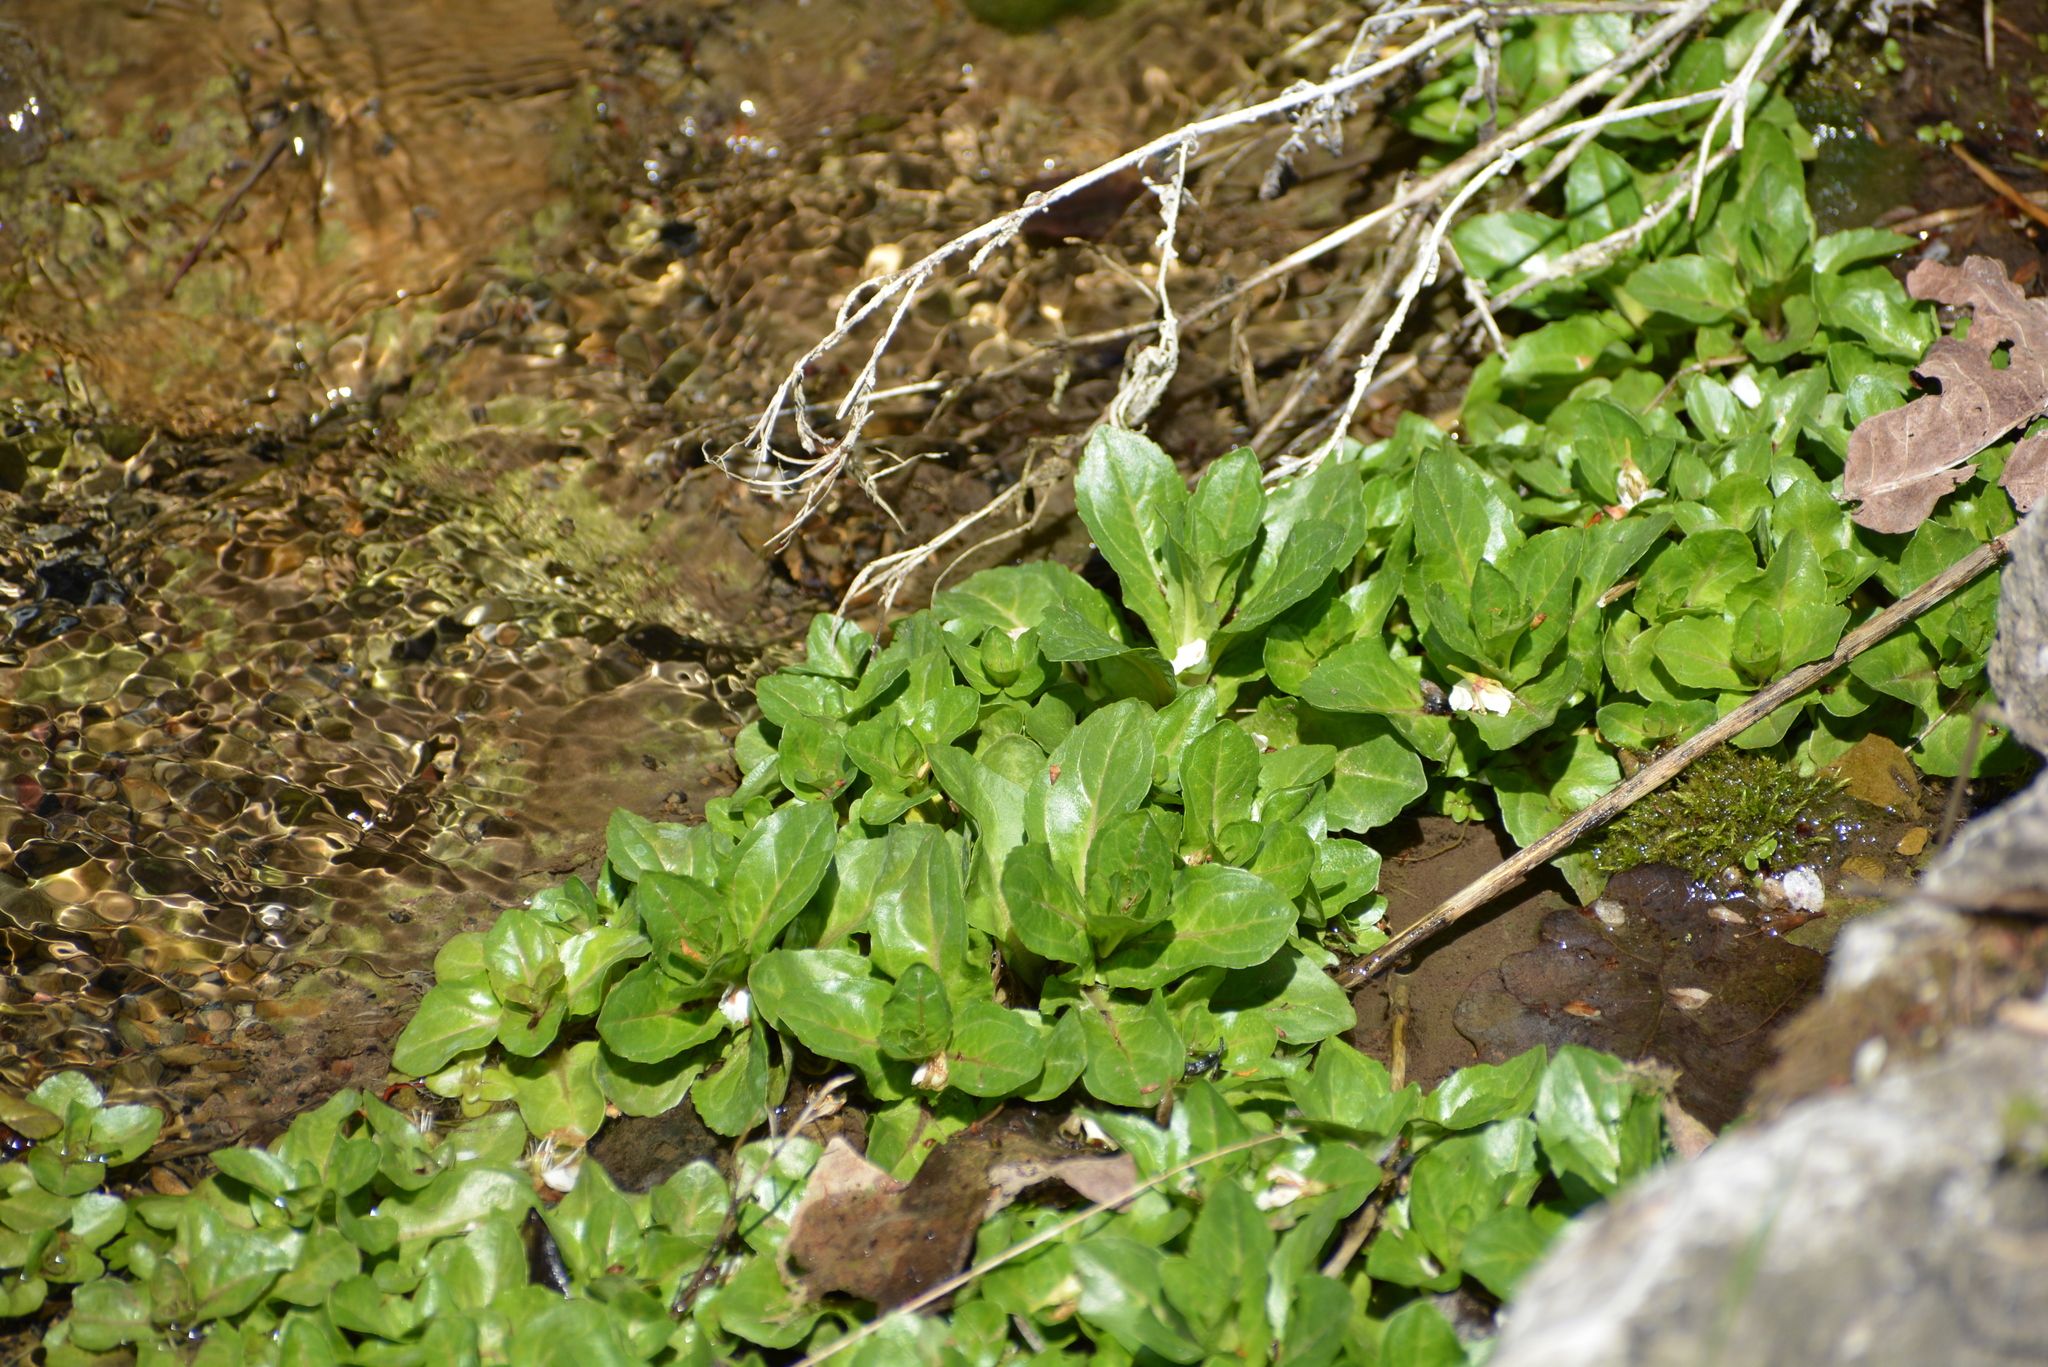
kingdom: Plantae
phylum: Tracheophyta
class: Magnoliopsida
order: Lamiales
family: Plantaginaceae
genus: Veronica
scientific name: Veronica beccabunga
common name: Brooklime
